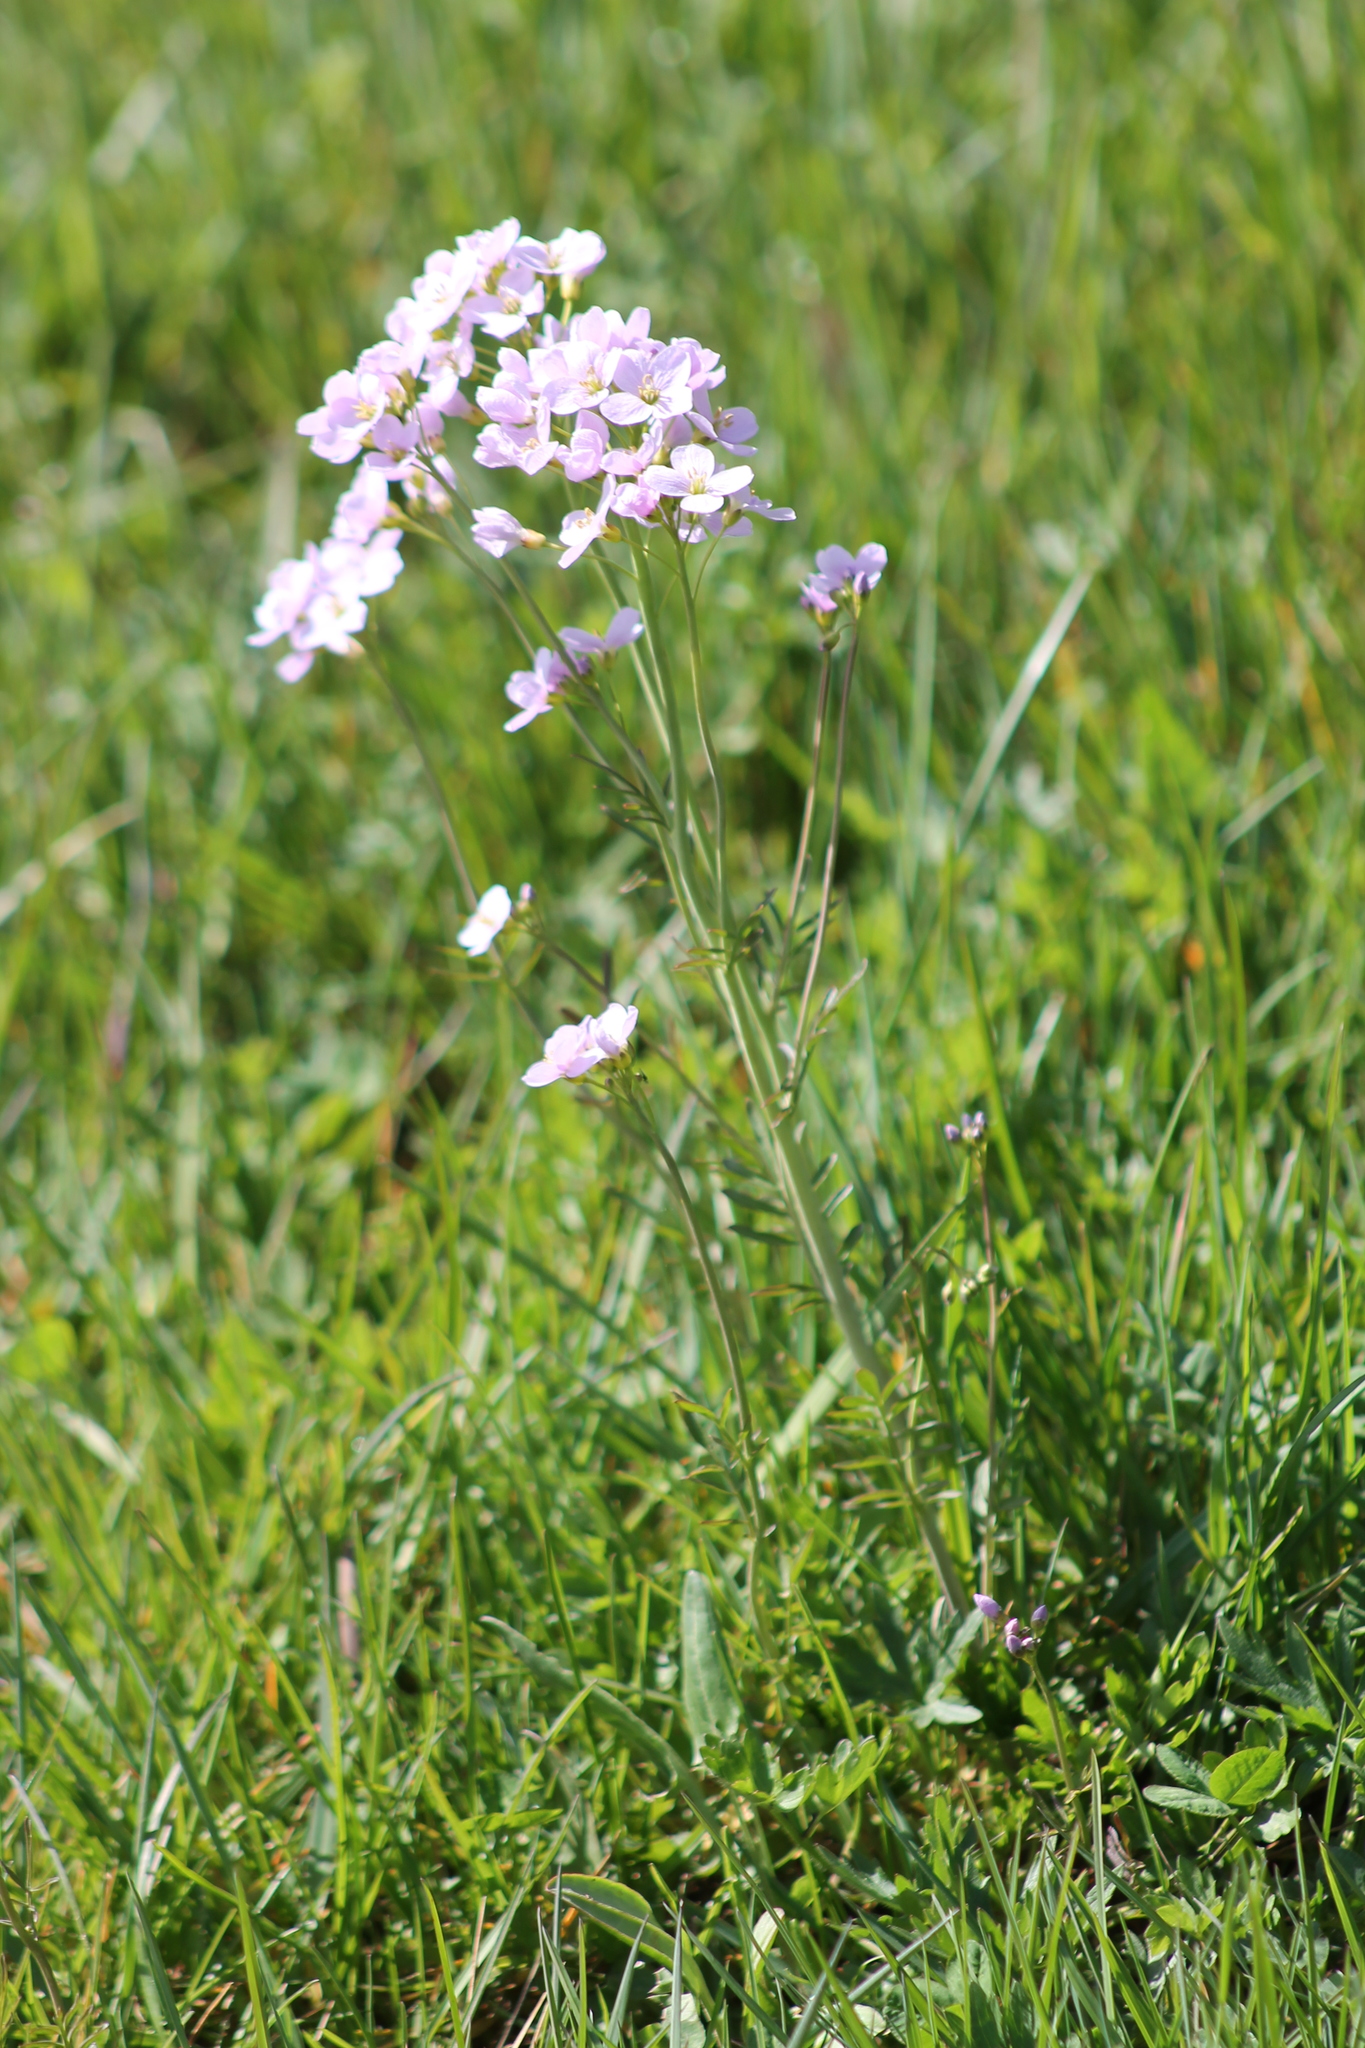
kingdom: Plantae
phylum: Tracheophyta
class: Magnoliopsida
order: Brassicales
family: Brassicaceae
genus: Cardamine
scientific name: Cardamine pratensis
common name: Cuckoo flower
